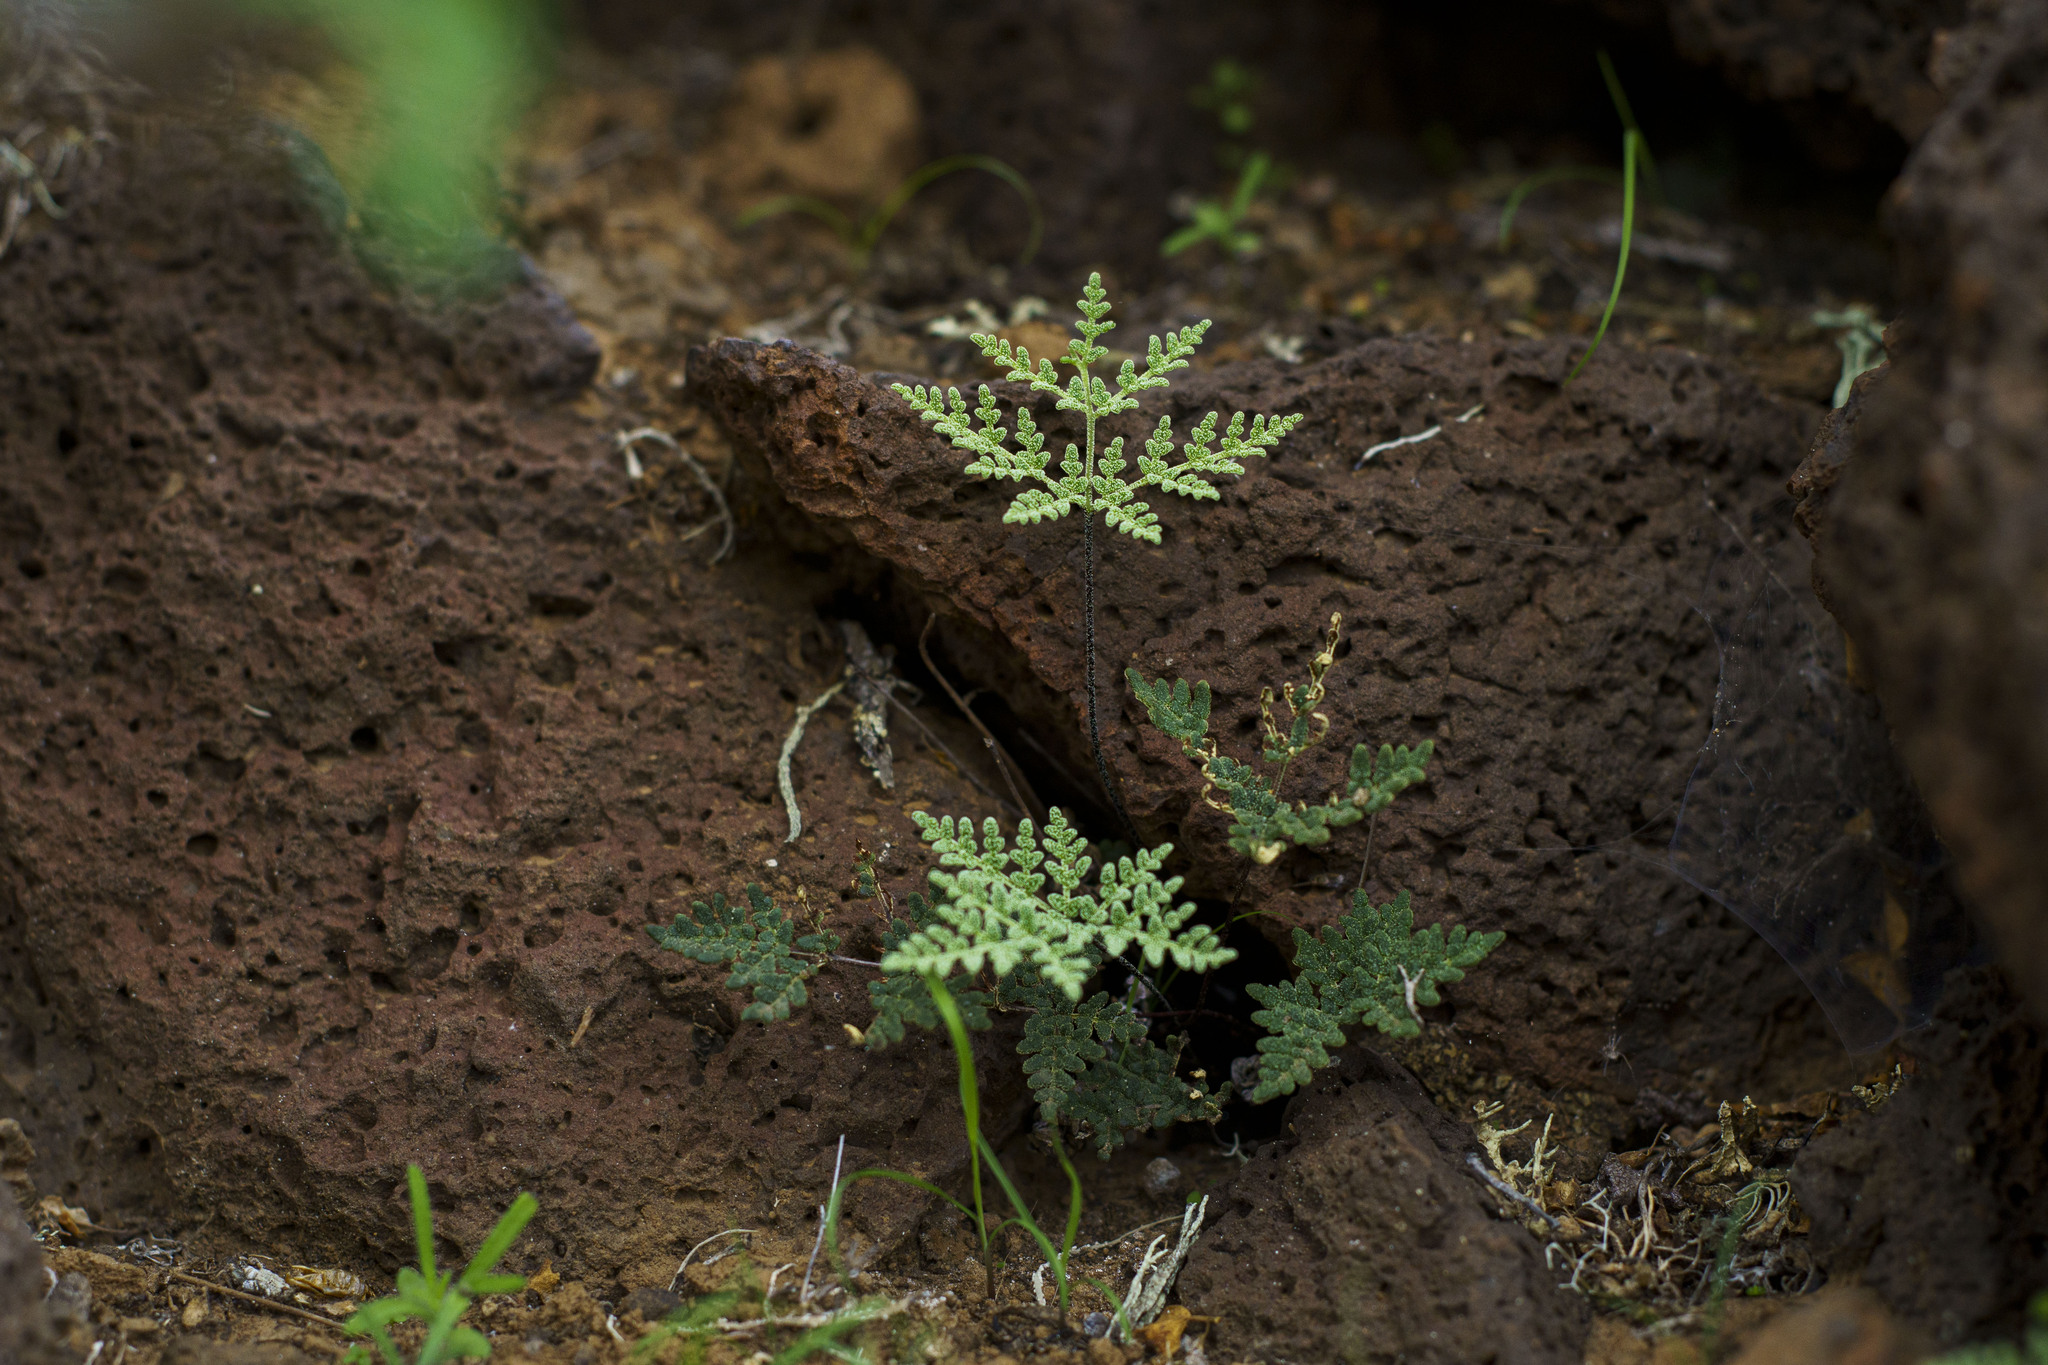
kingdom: Plantae
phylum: Tracheophyta
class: Polypodiopsida
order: Polypodiales
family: Pteridaceae
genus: Notholaena
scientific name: Notholaena californica
